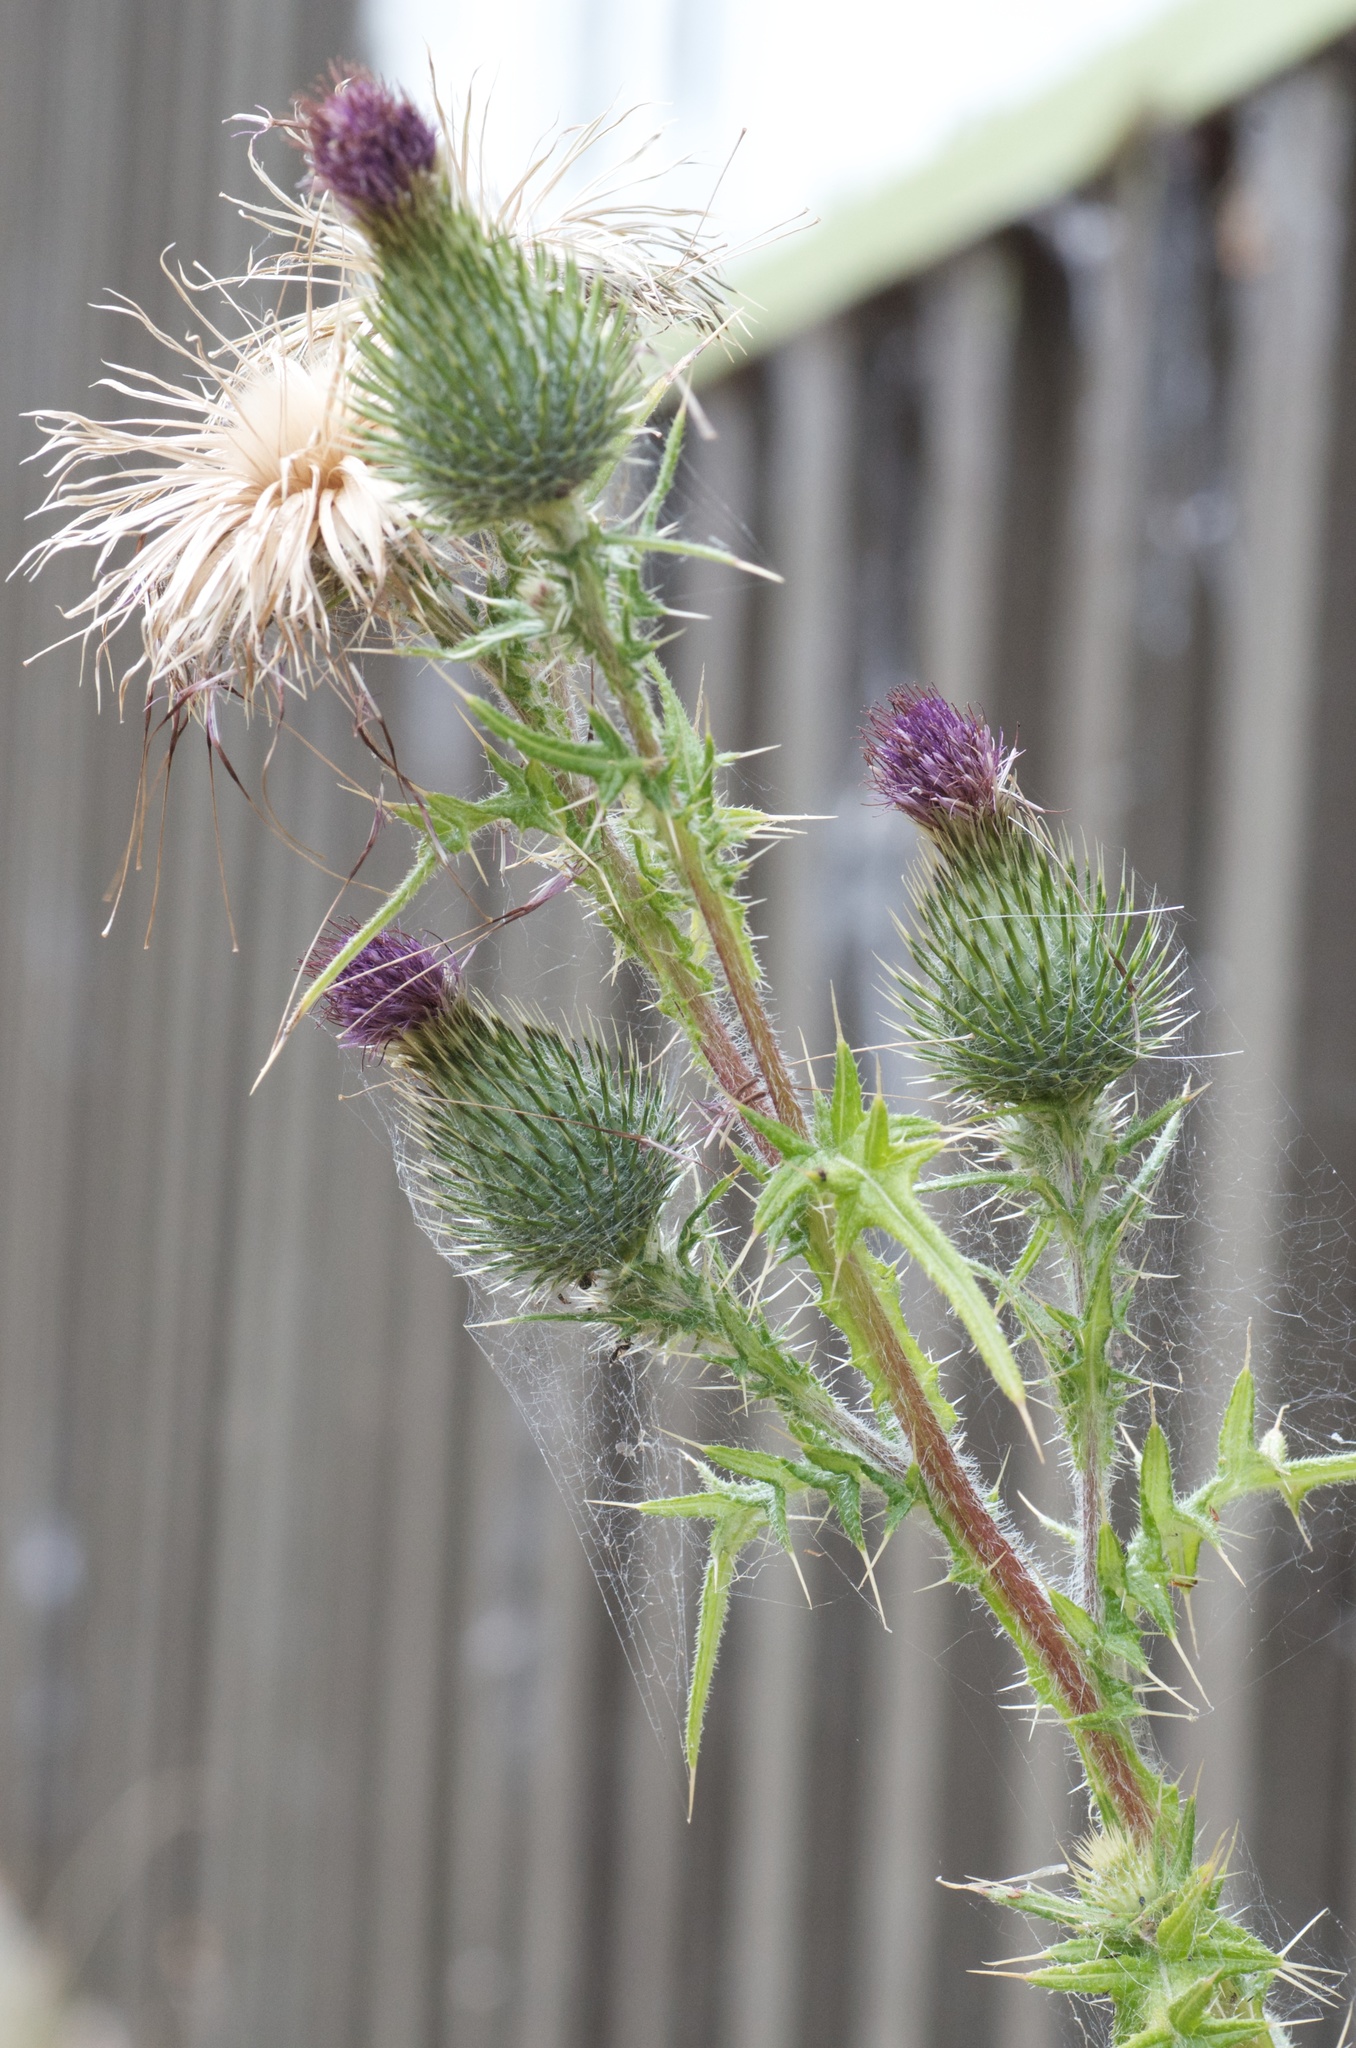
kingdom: Plantae
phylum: Tracheophyta
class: Magnoliopsida
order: Asterales
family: Asteraceae
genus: Cirsium
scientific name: Cirsium vulgare
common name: Bull thistle
